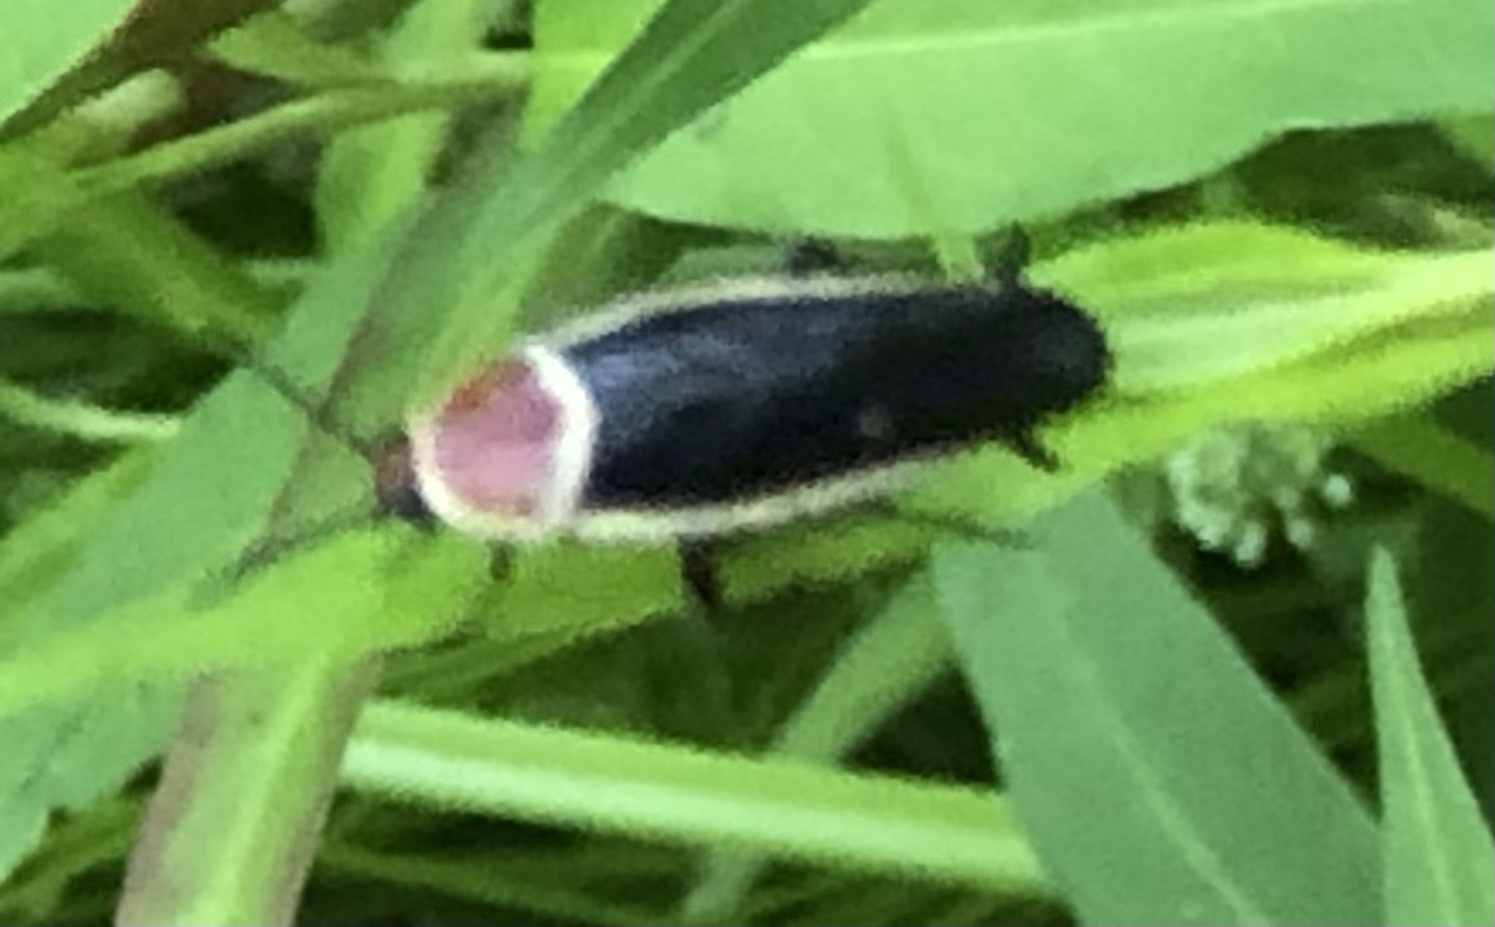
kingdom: Animalia
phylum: Arthropoda
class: Insecta
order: Blattodea
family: Ectobiidae
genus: Pseudomops
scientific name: Pseudomops septentrionalis
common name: Pale-bordered field cockroach
